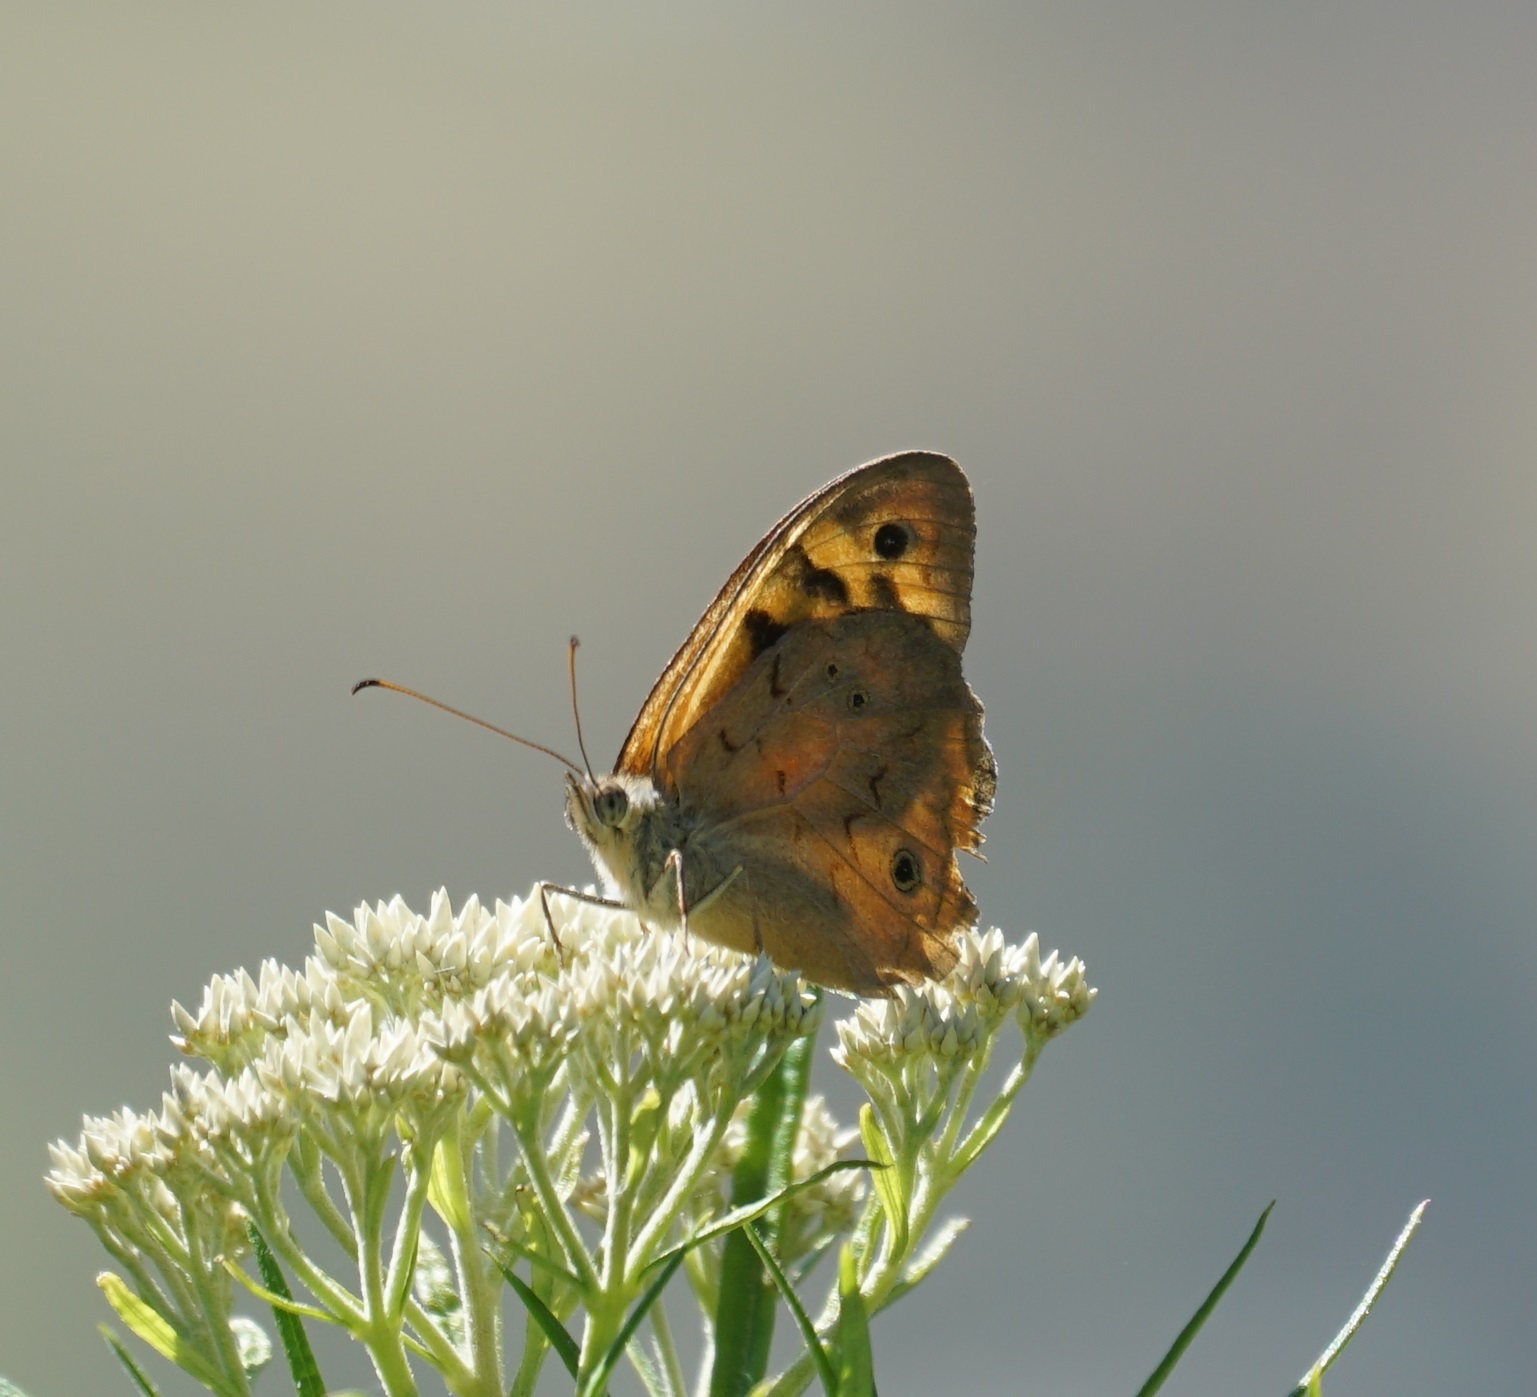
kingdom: Animalia
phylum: Arthropoda
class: Insecta
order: Lepidoptera
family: Nymphalidae
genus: Heteronympha
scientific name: Heteronympha merope
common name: Common brown
